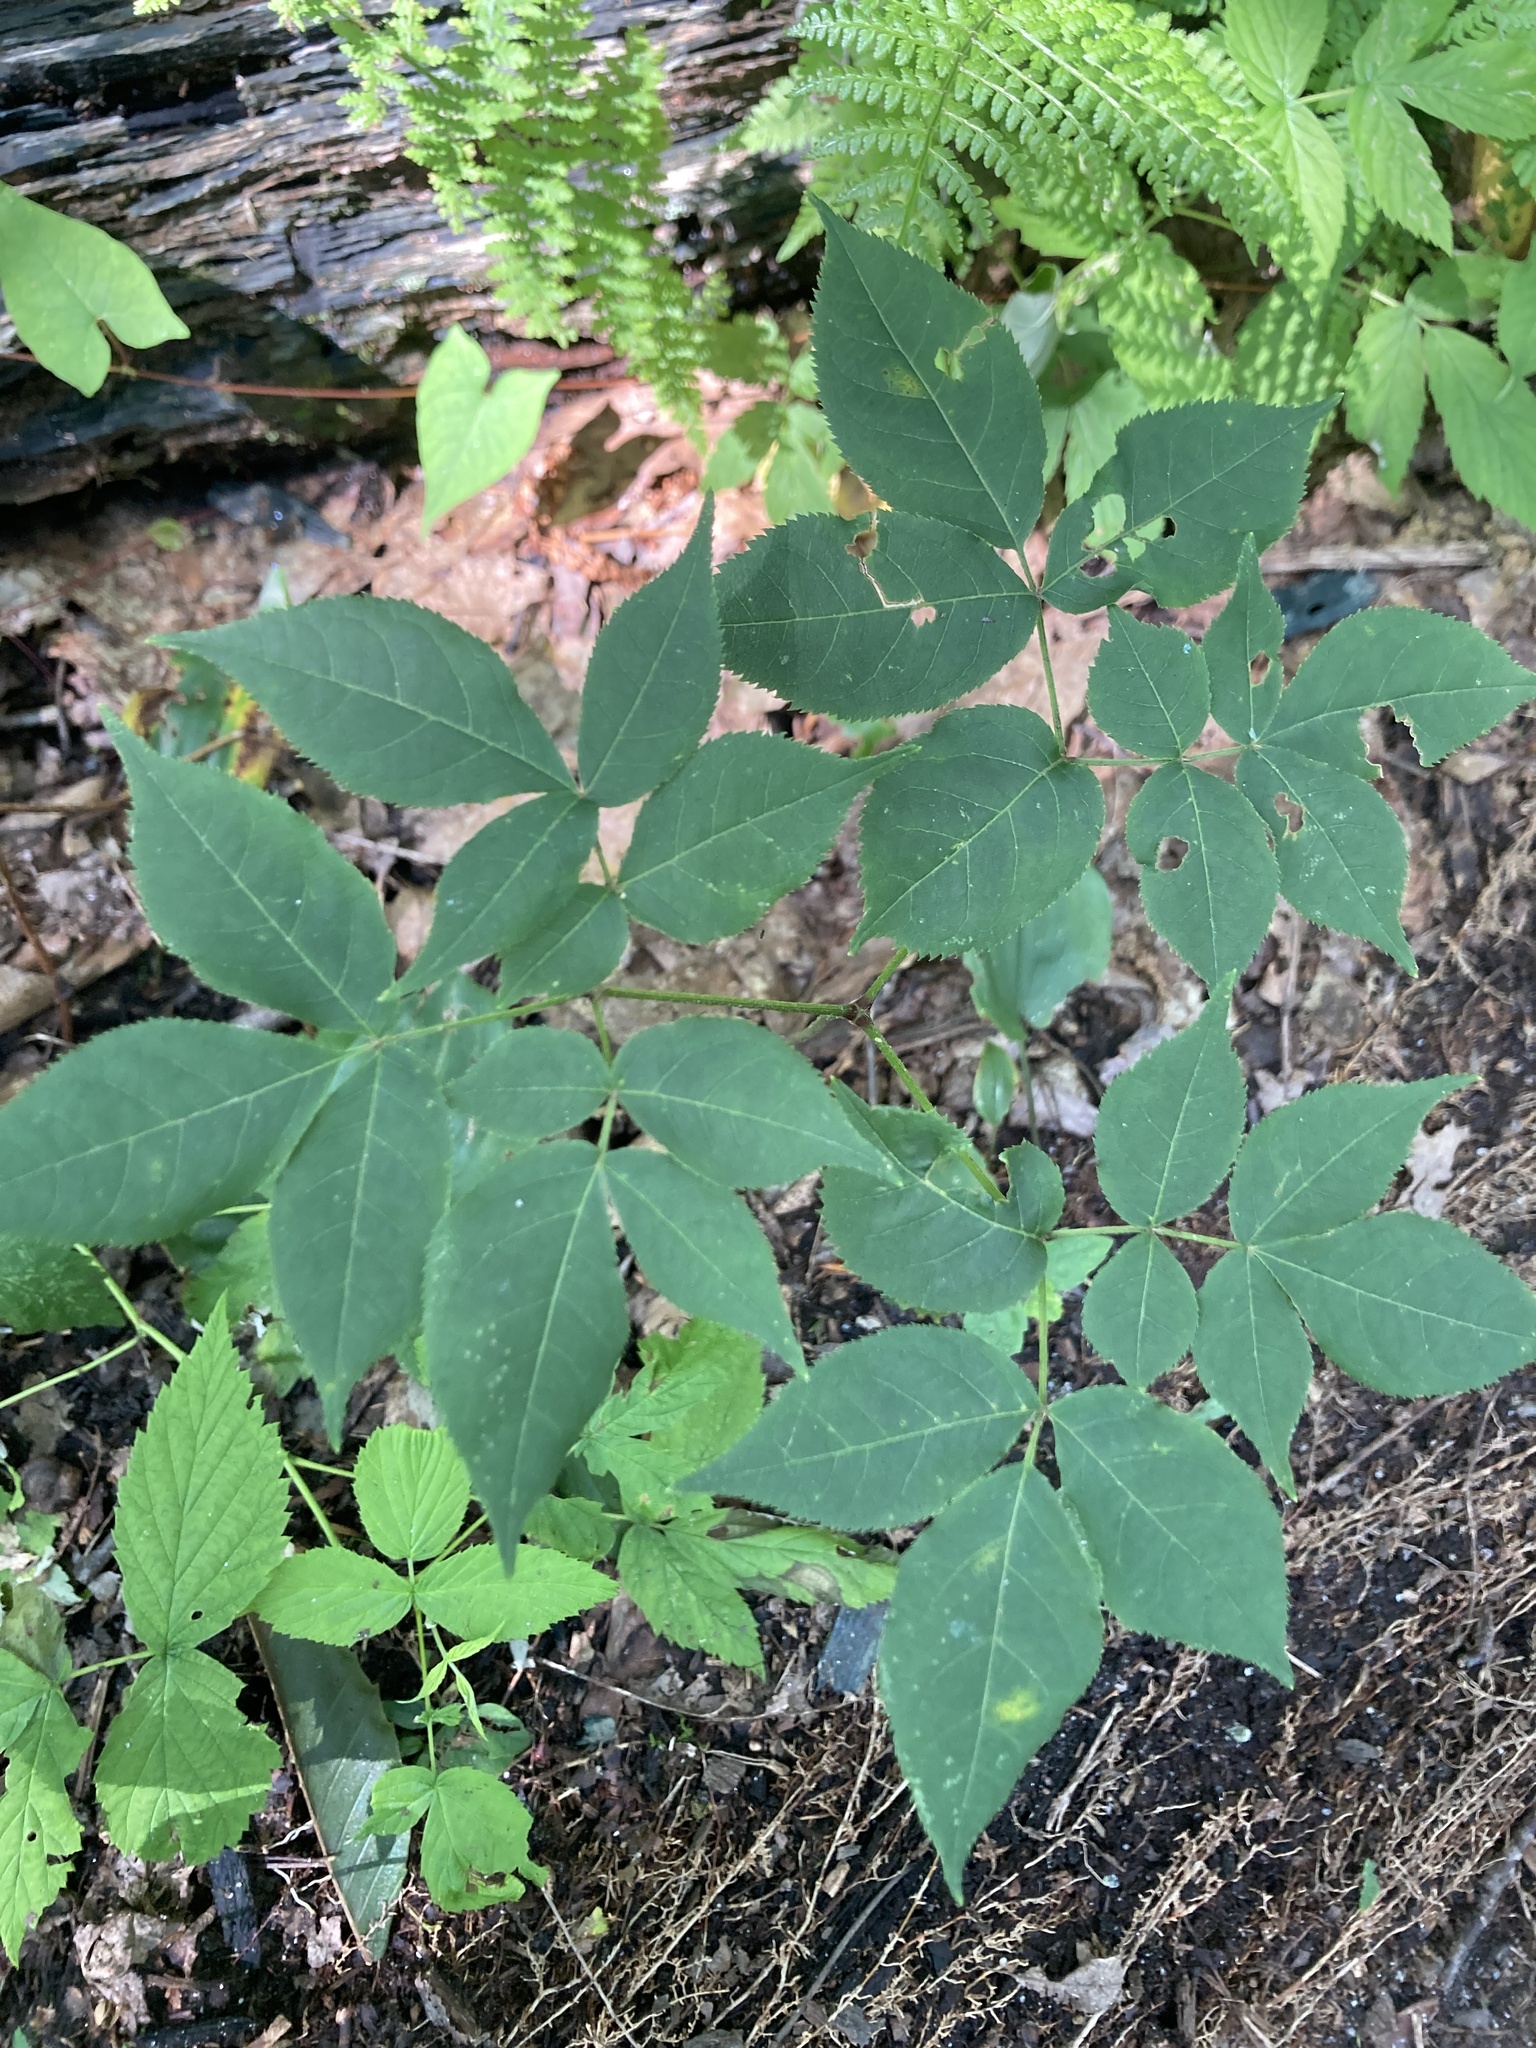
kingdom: Plantae
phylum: Tracheophyta
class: Magnoliopsida
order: Apiales
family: Araliaceae
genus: Aralia
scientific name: Aralia nudicaulis
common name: Wild sarsaparilla
